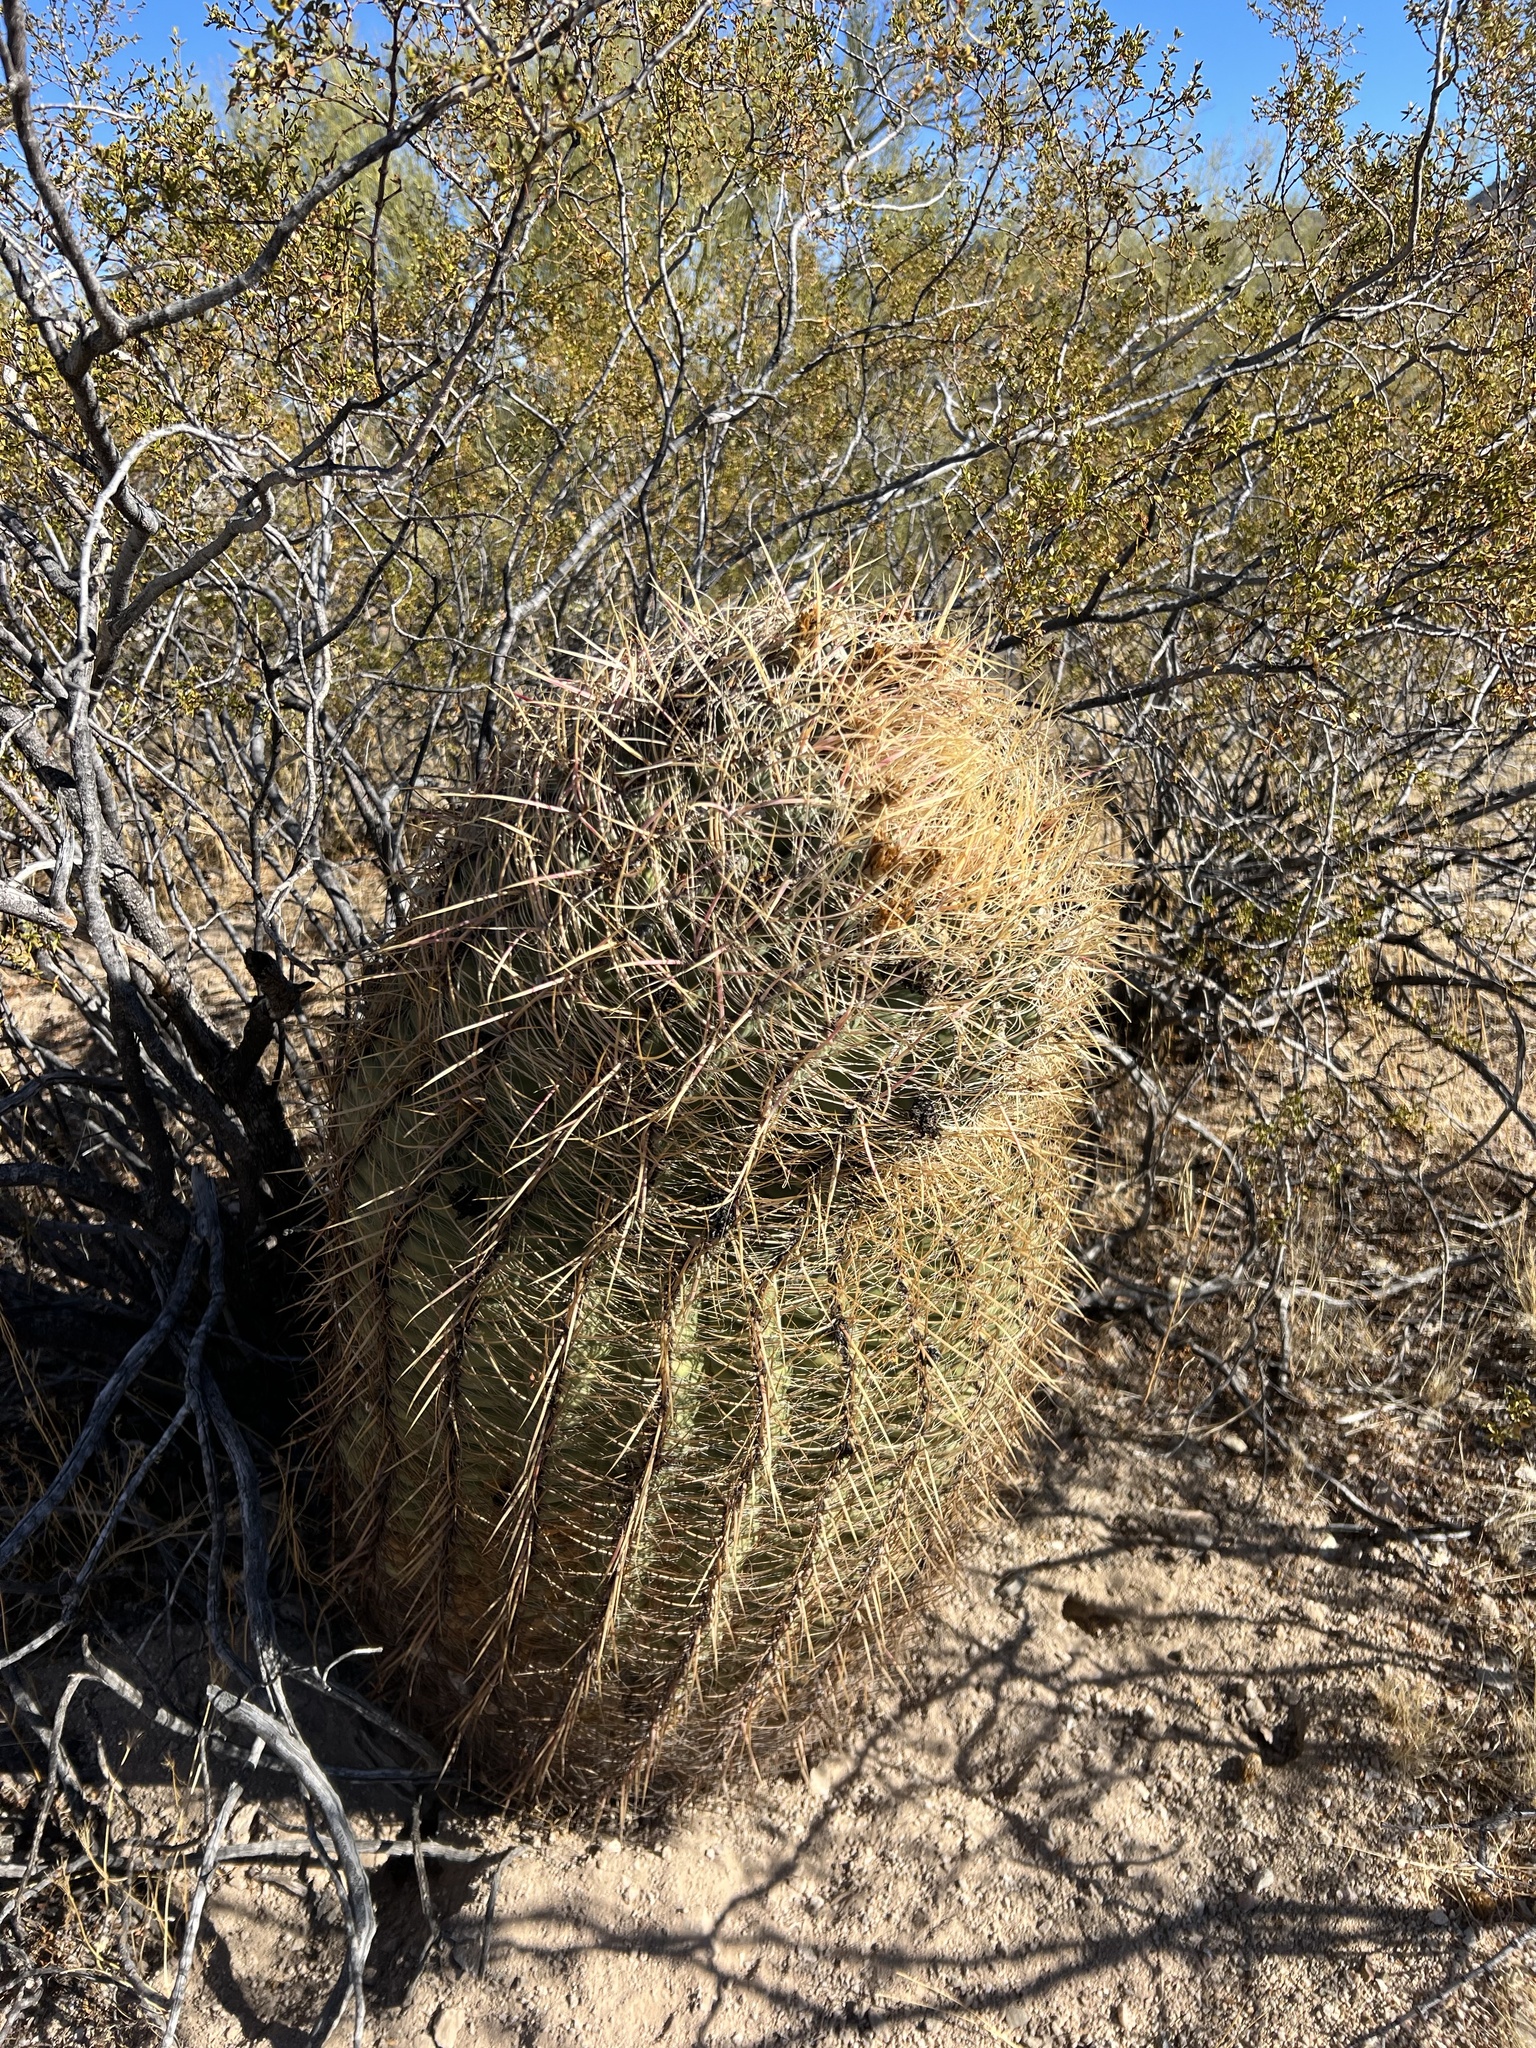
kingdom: Plantae
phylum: Tracheophyta
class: Magnoliopsida
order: Caryophyllales
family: Cactaceae
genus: Ferocactus
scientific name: Ferocactus cylindraceus
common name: California barrel cactus
